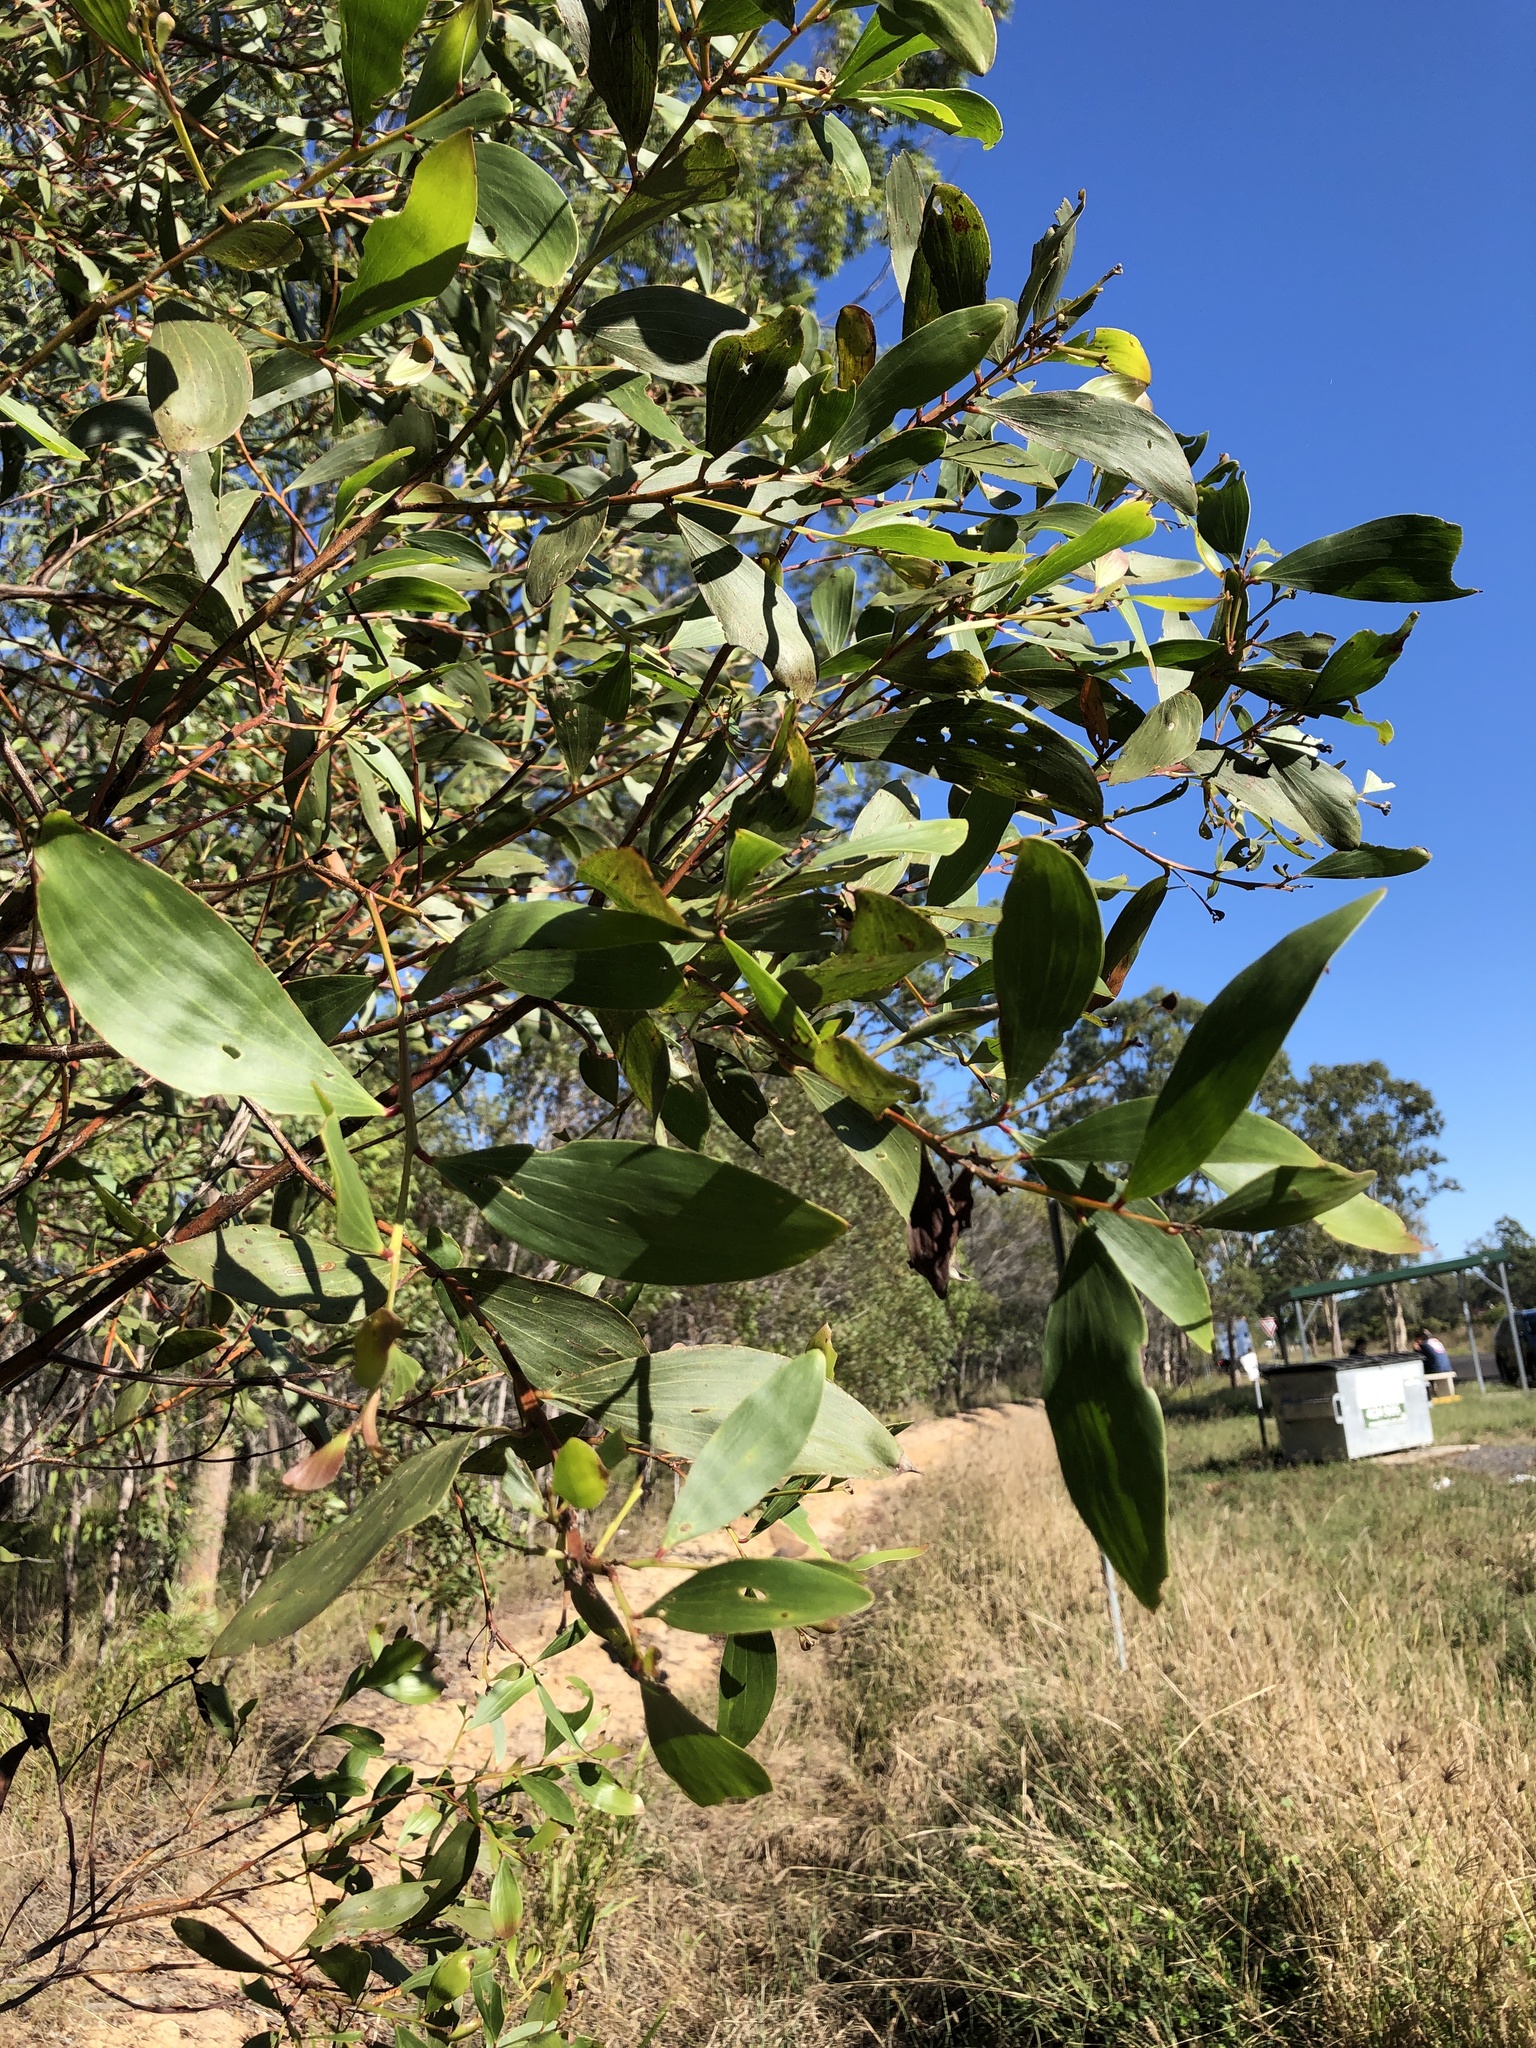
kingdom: Plantae
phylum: Tracheophyta
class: Magnoliopsida
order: Fabales
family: Fabaceae
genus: Acacia
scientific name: Acacia leiocalyx
